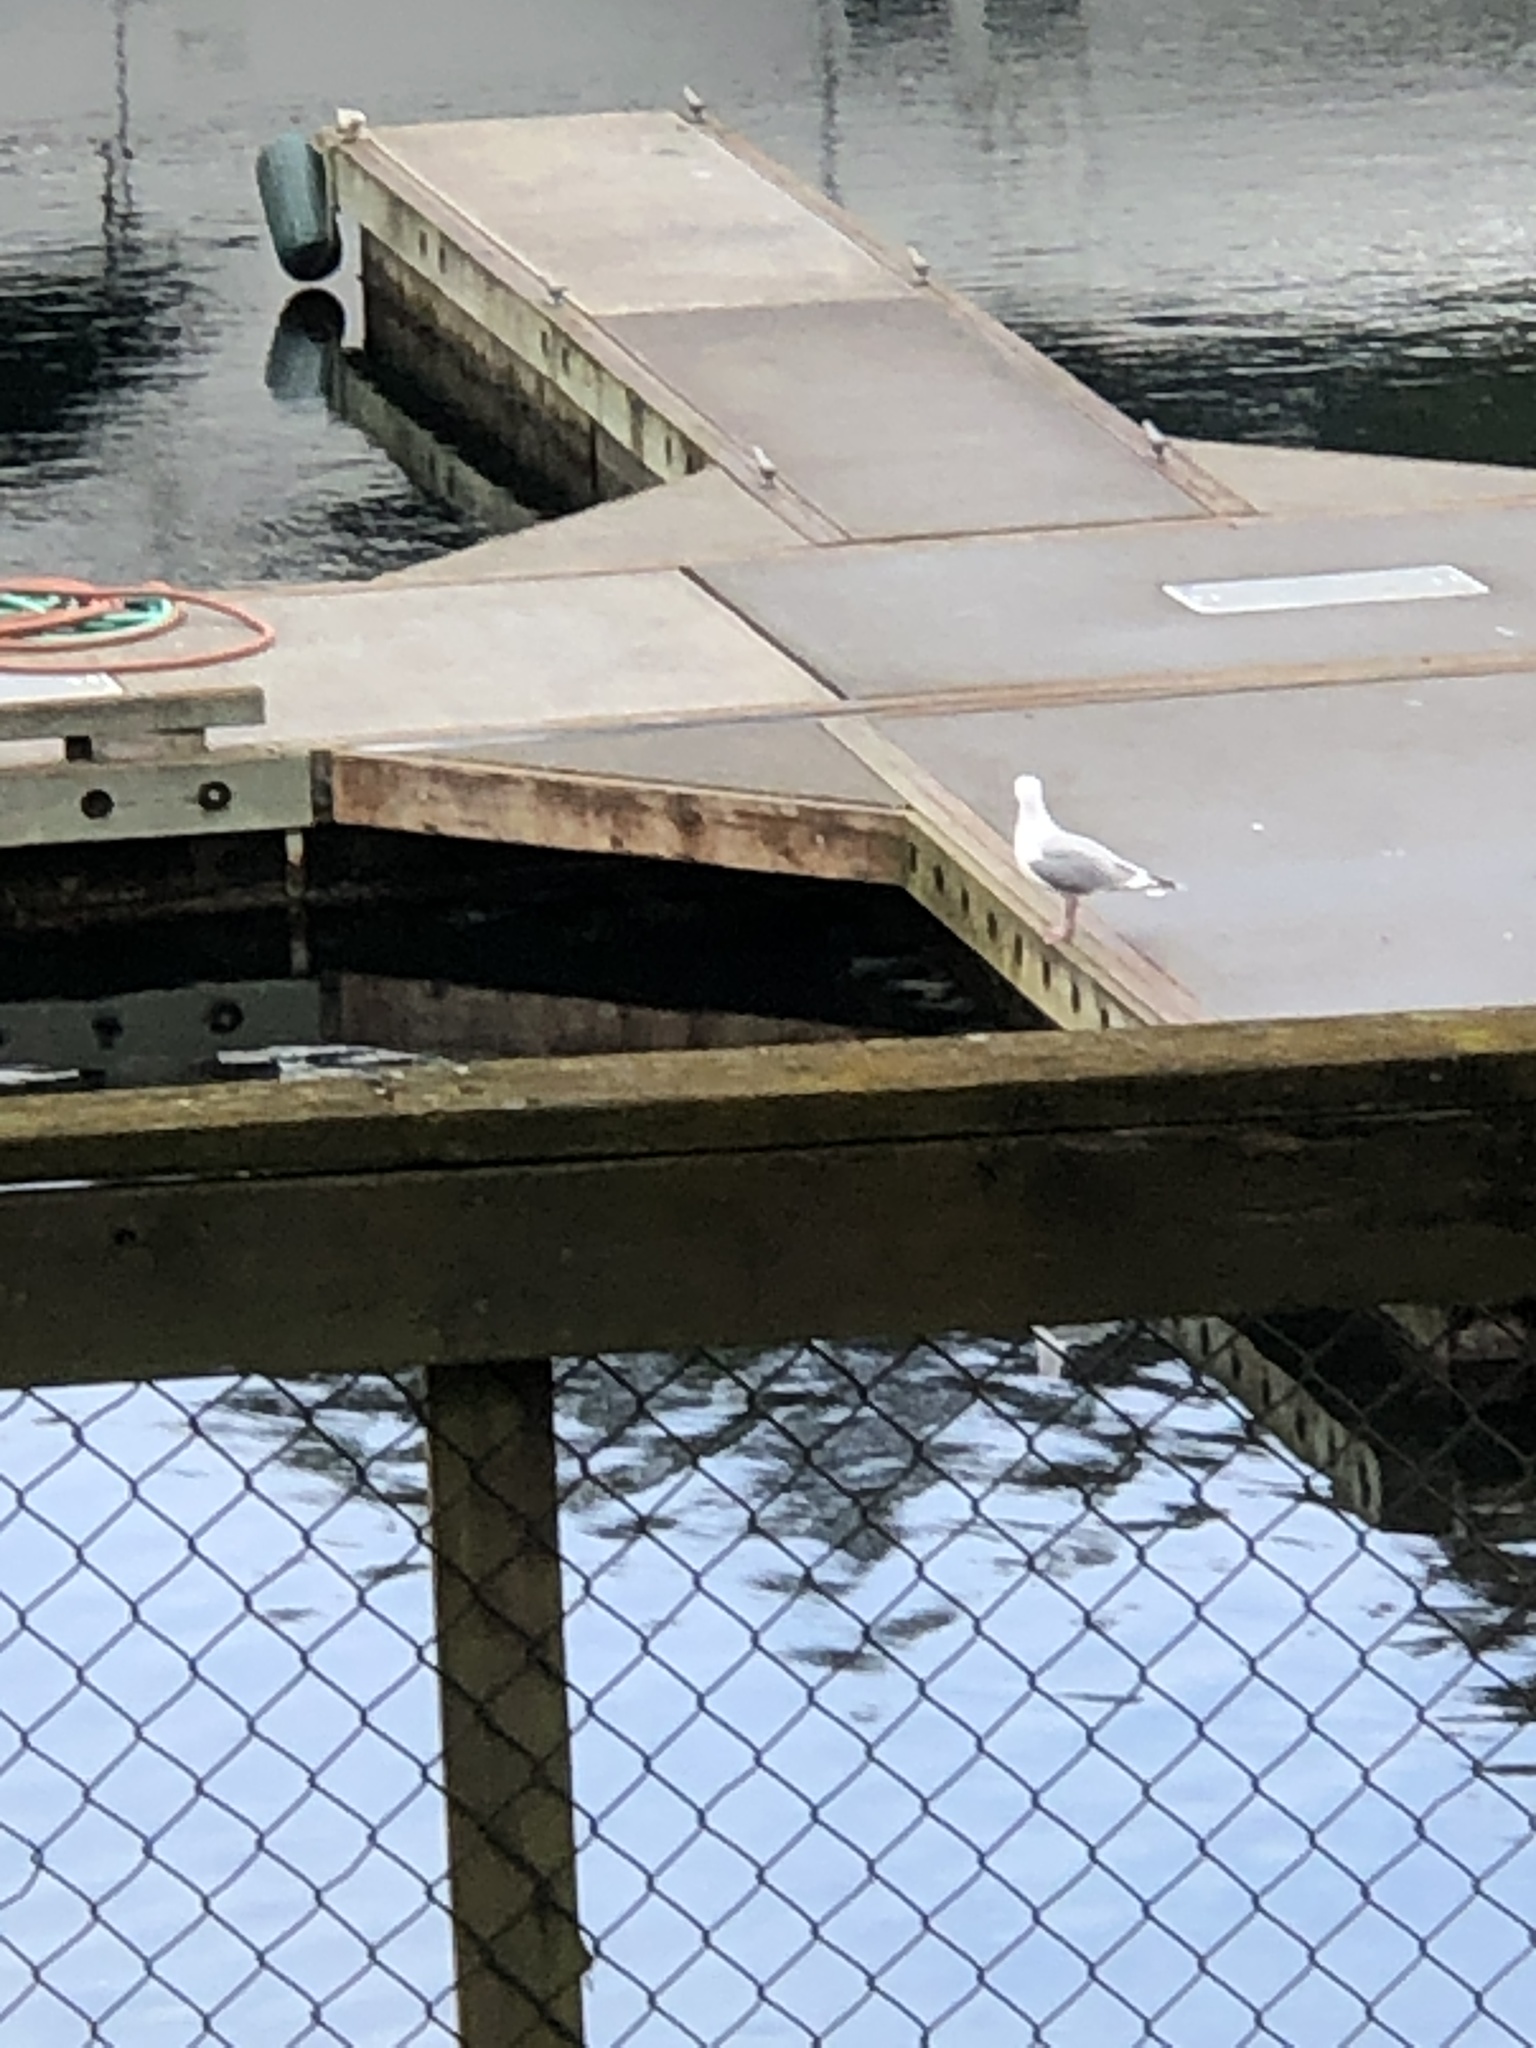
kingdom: Animalia
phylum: Chordata
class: Aves
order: Charadriiformes
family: Laridae
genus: Larus
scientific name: Larus glaucescens
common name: Glaucous-winged gull
